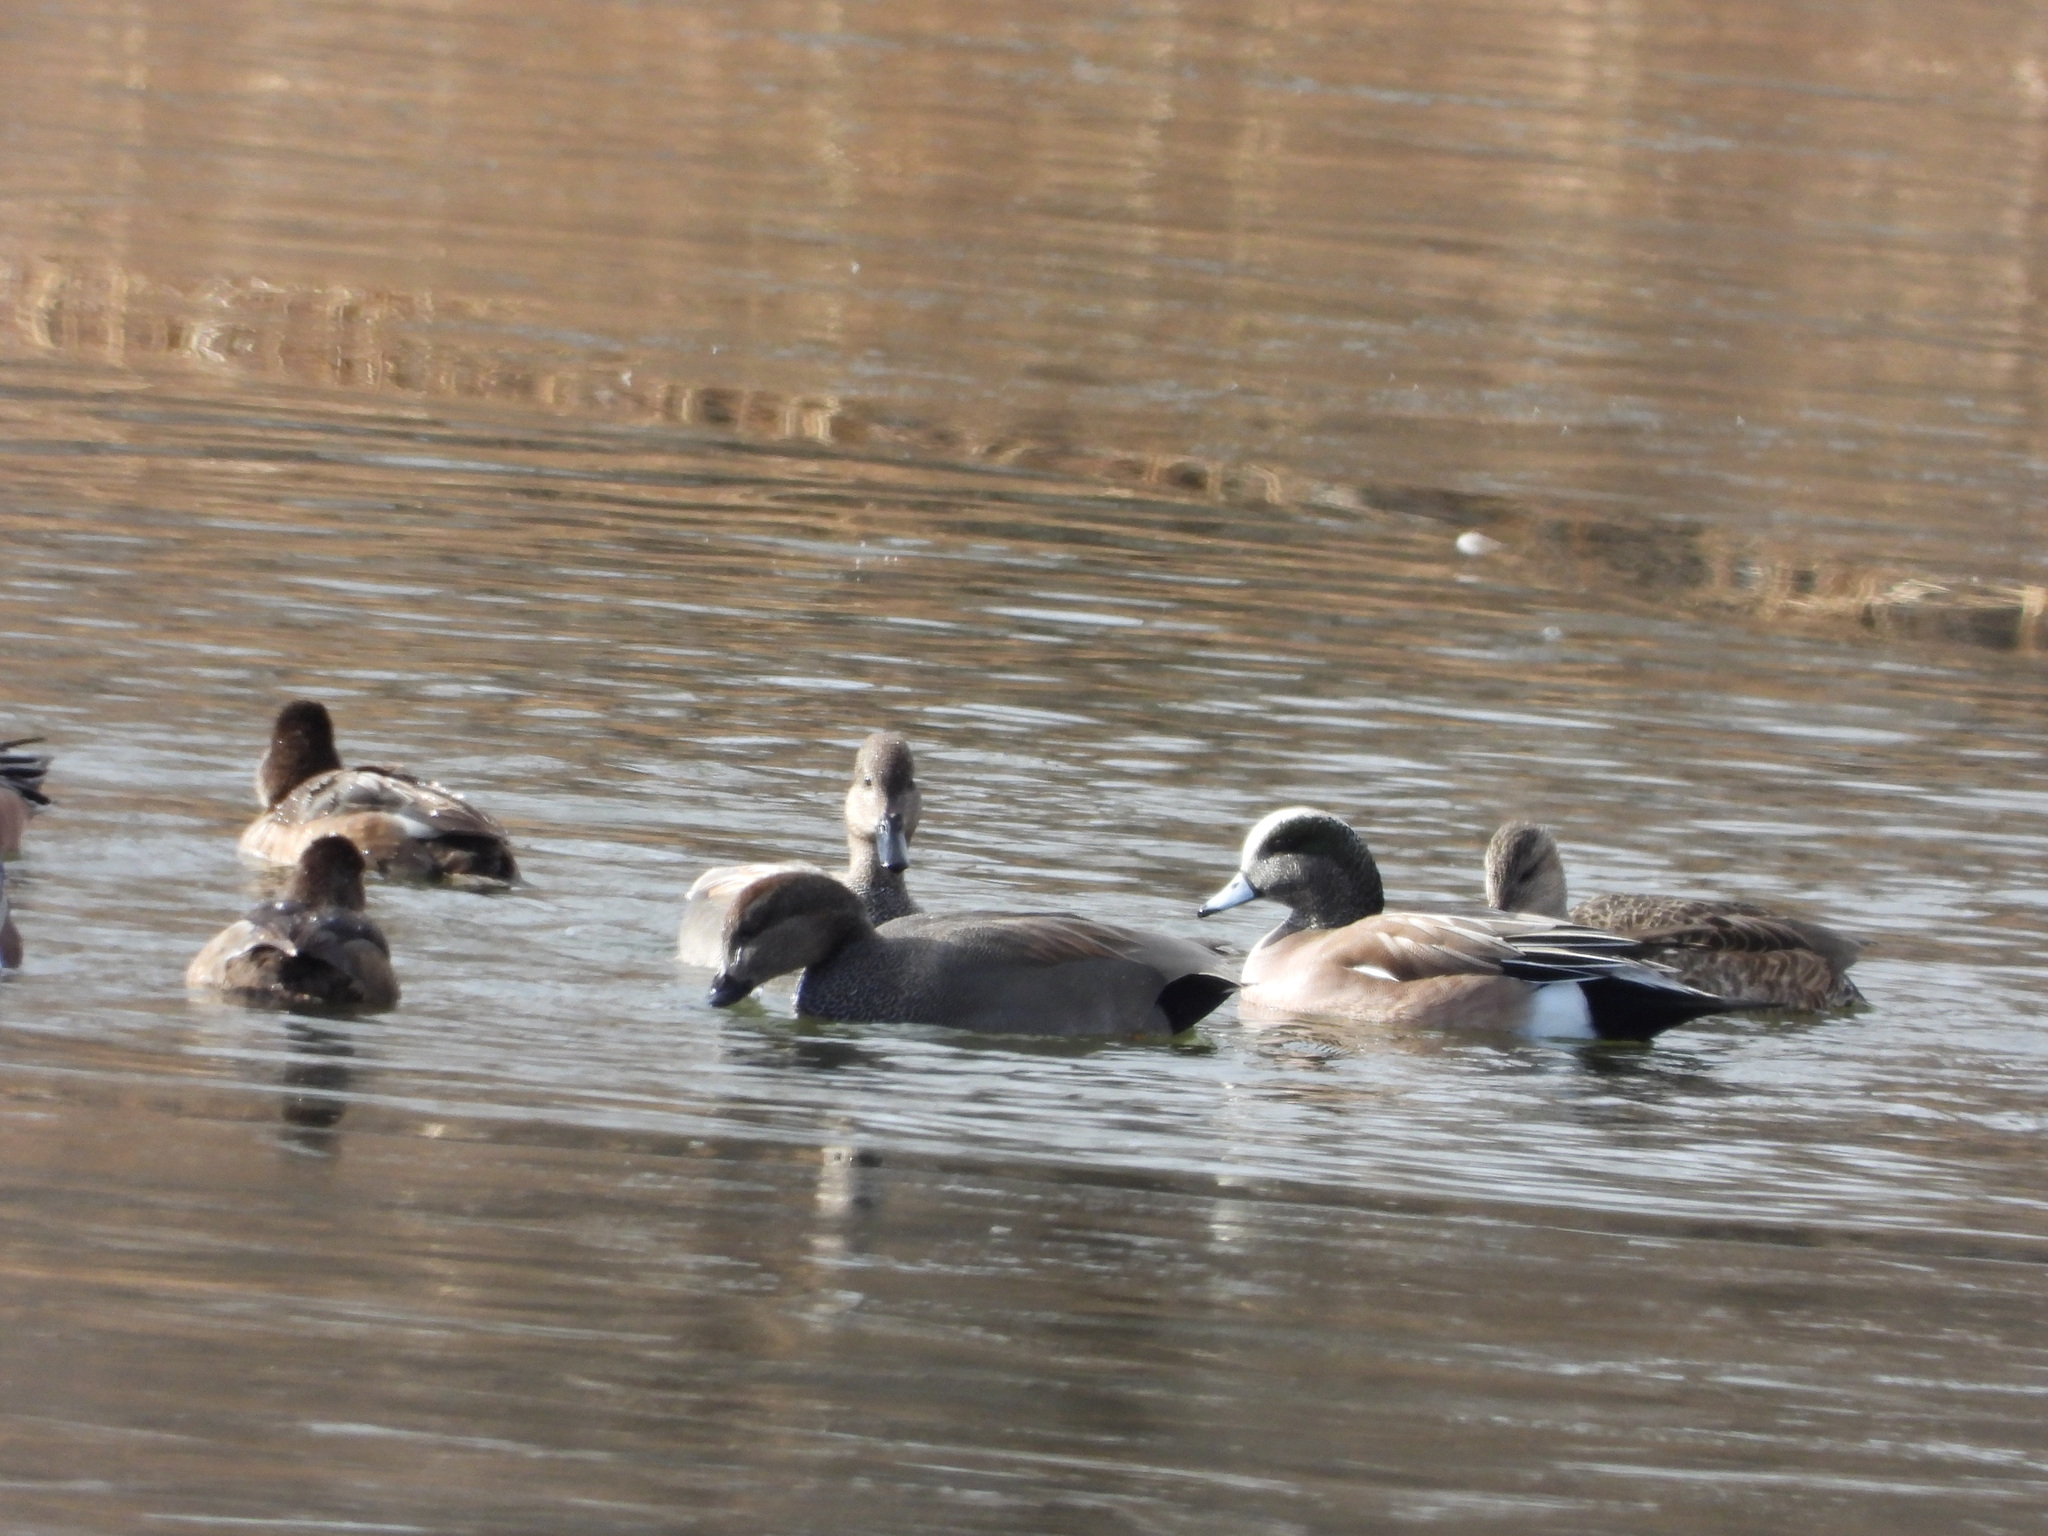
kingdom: Animalia
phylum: Chordata
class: Aves
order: Anseriformes
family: Anatidae
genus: Mareca
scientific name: Mareca americana
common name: American wigeon
